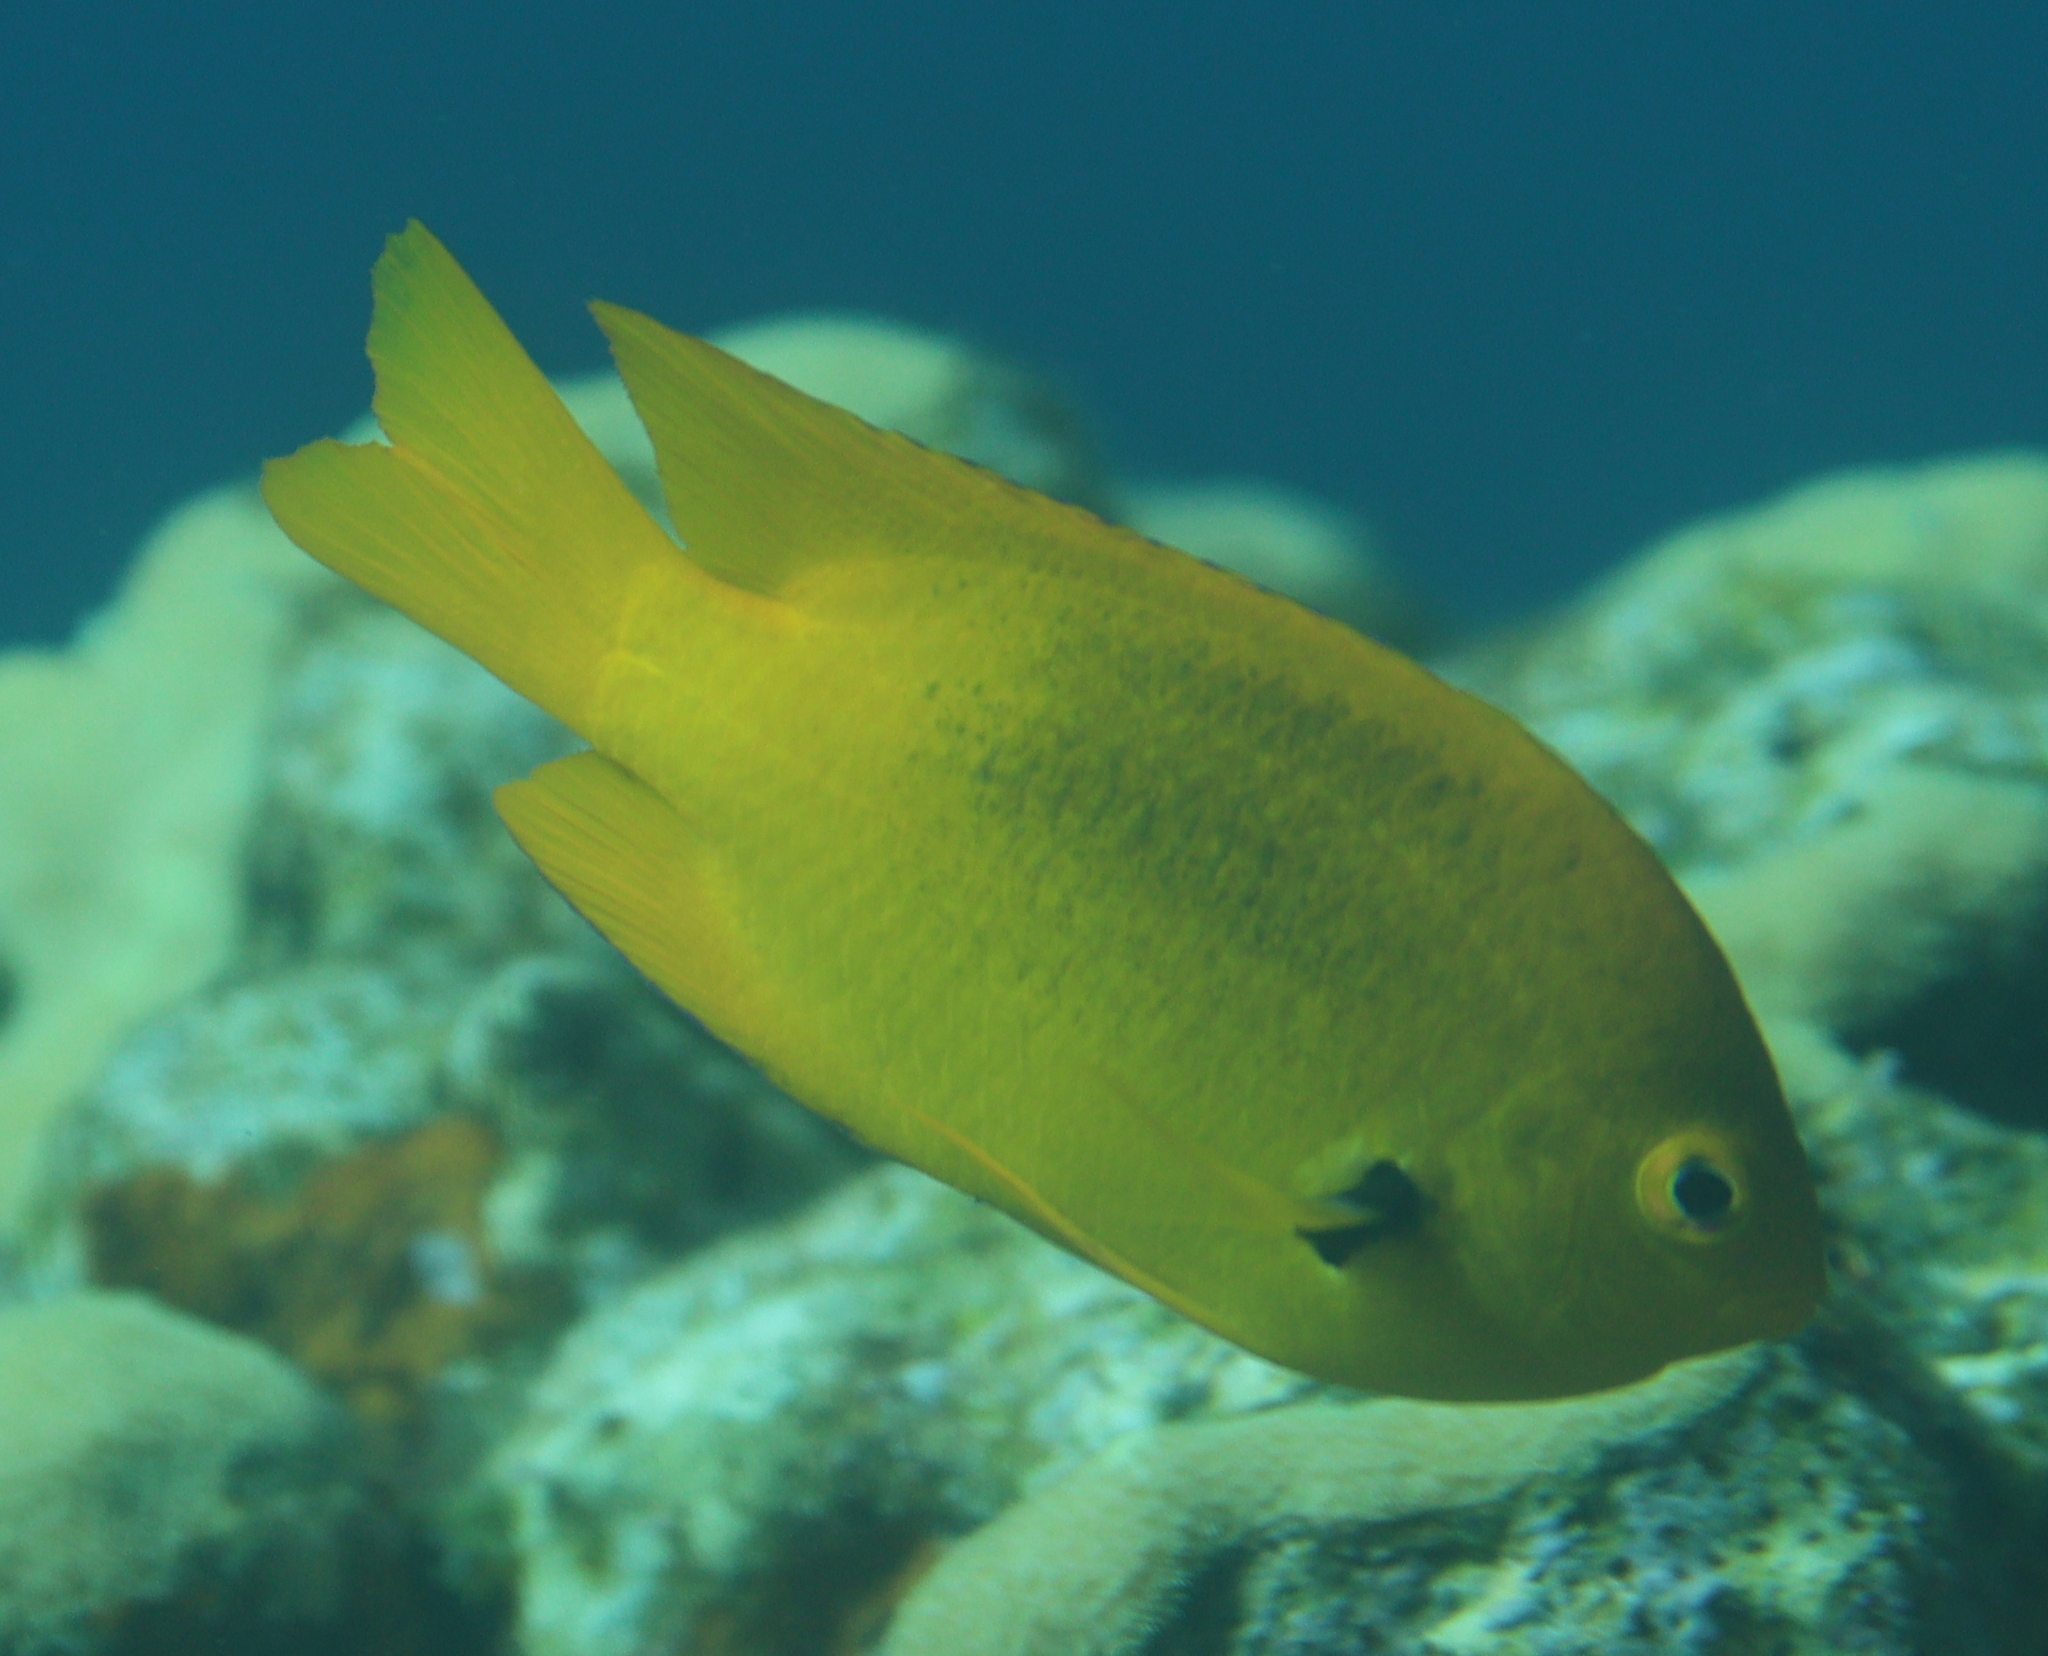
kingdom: Animalia
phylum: Chordata
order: Perciformes
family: Pomacentridae
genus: Pomacentrus
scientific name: Pomacentrus sulfureus
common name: Sulfur damsel
